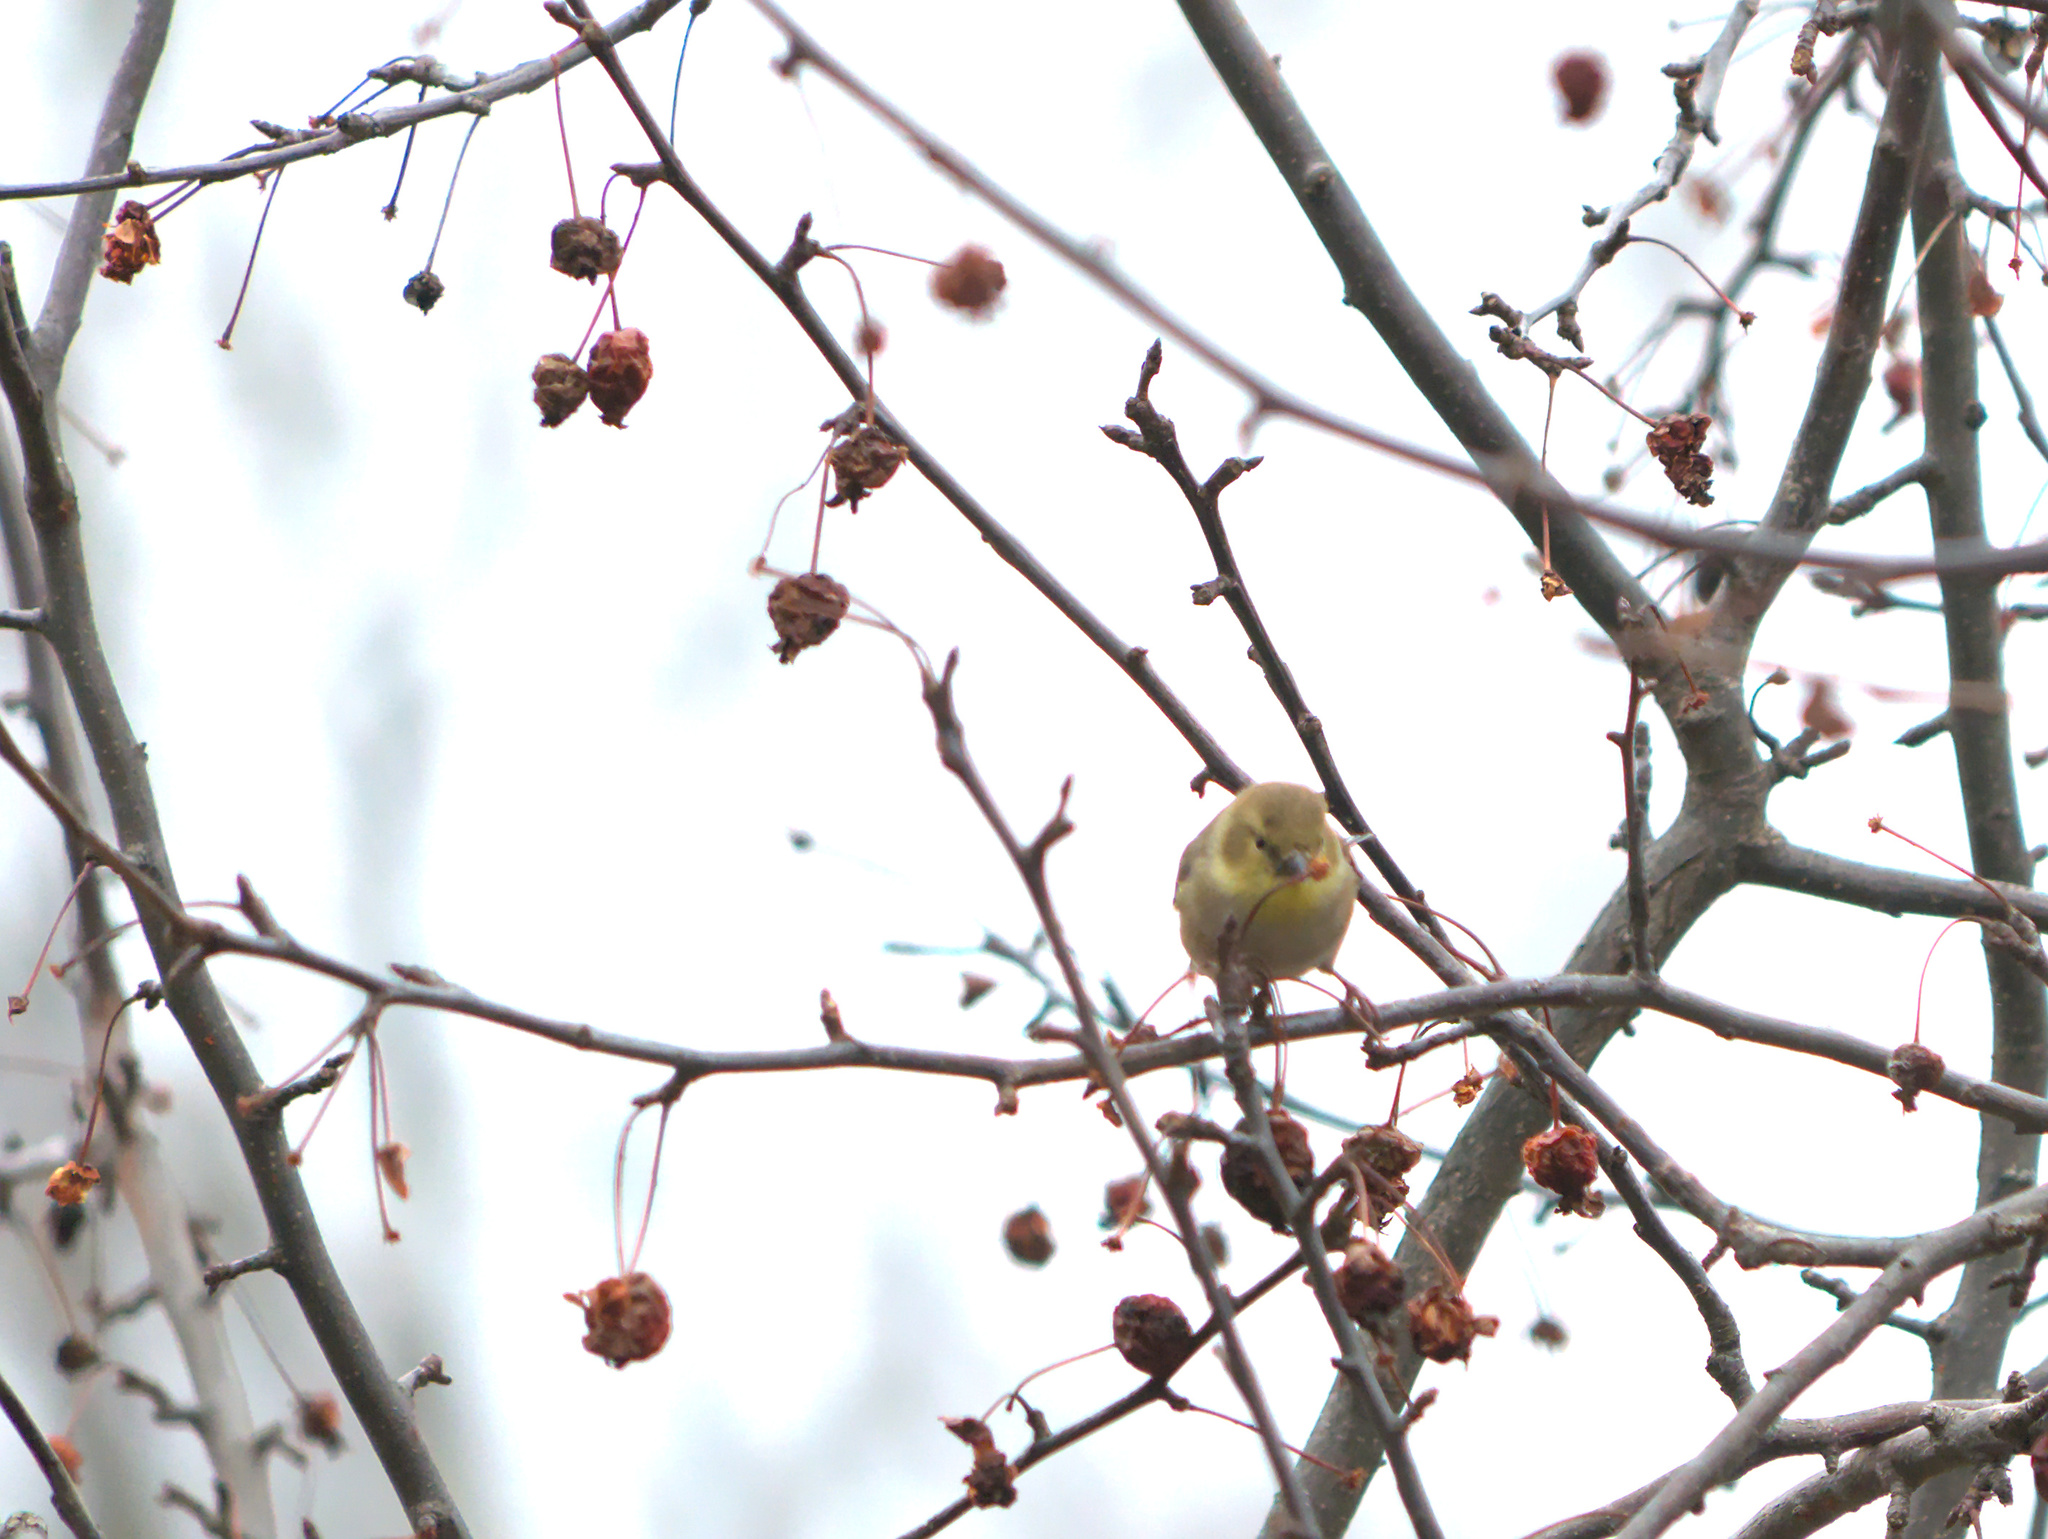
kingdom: Animalia
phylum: Chordata
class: Aves
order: Passeriformes
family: Fringillidae
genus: Spinus
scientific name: Spinus tristis
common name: American goldfinch
